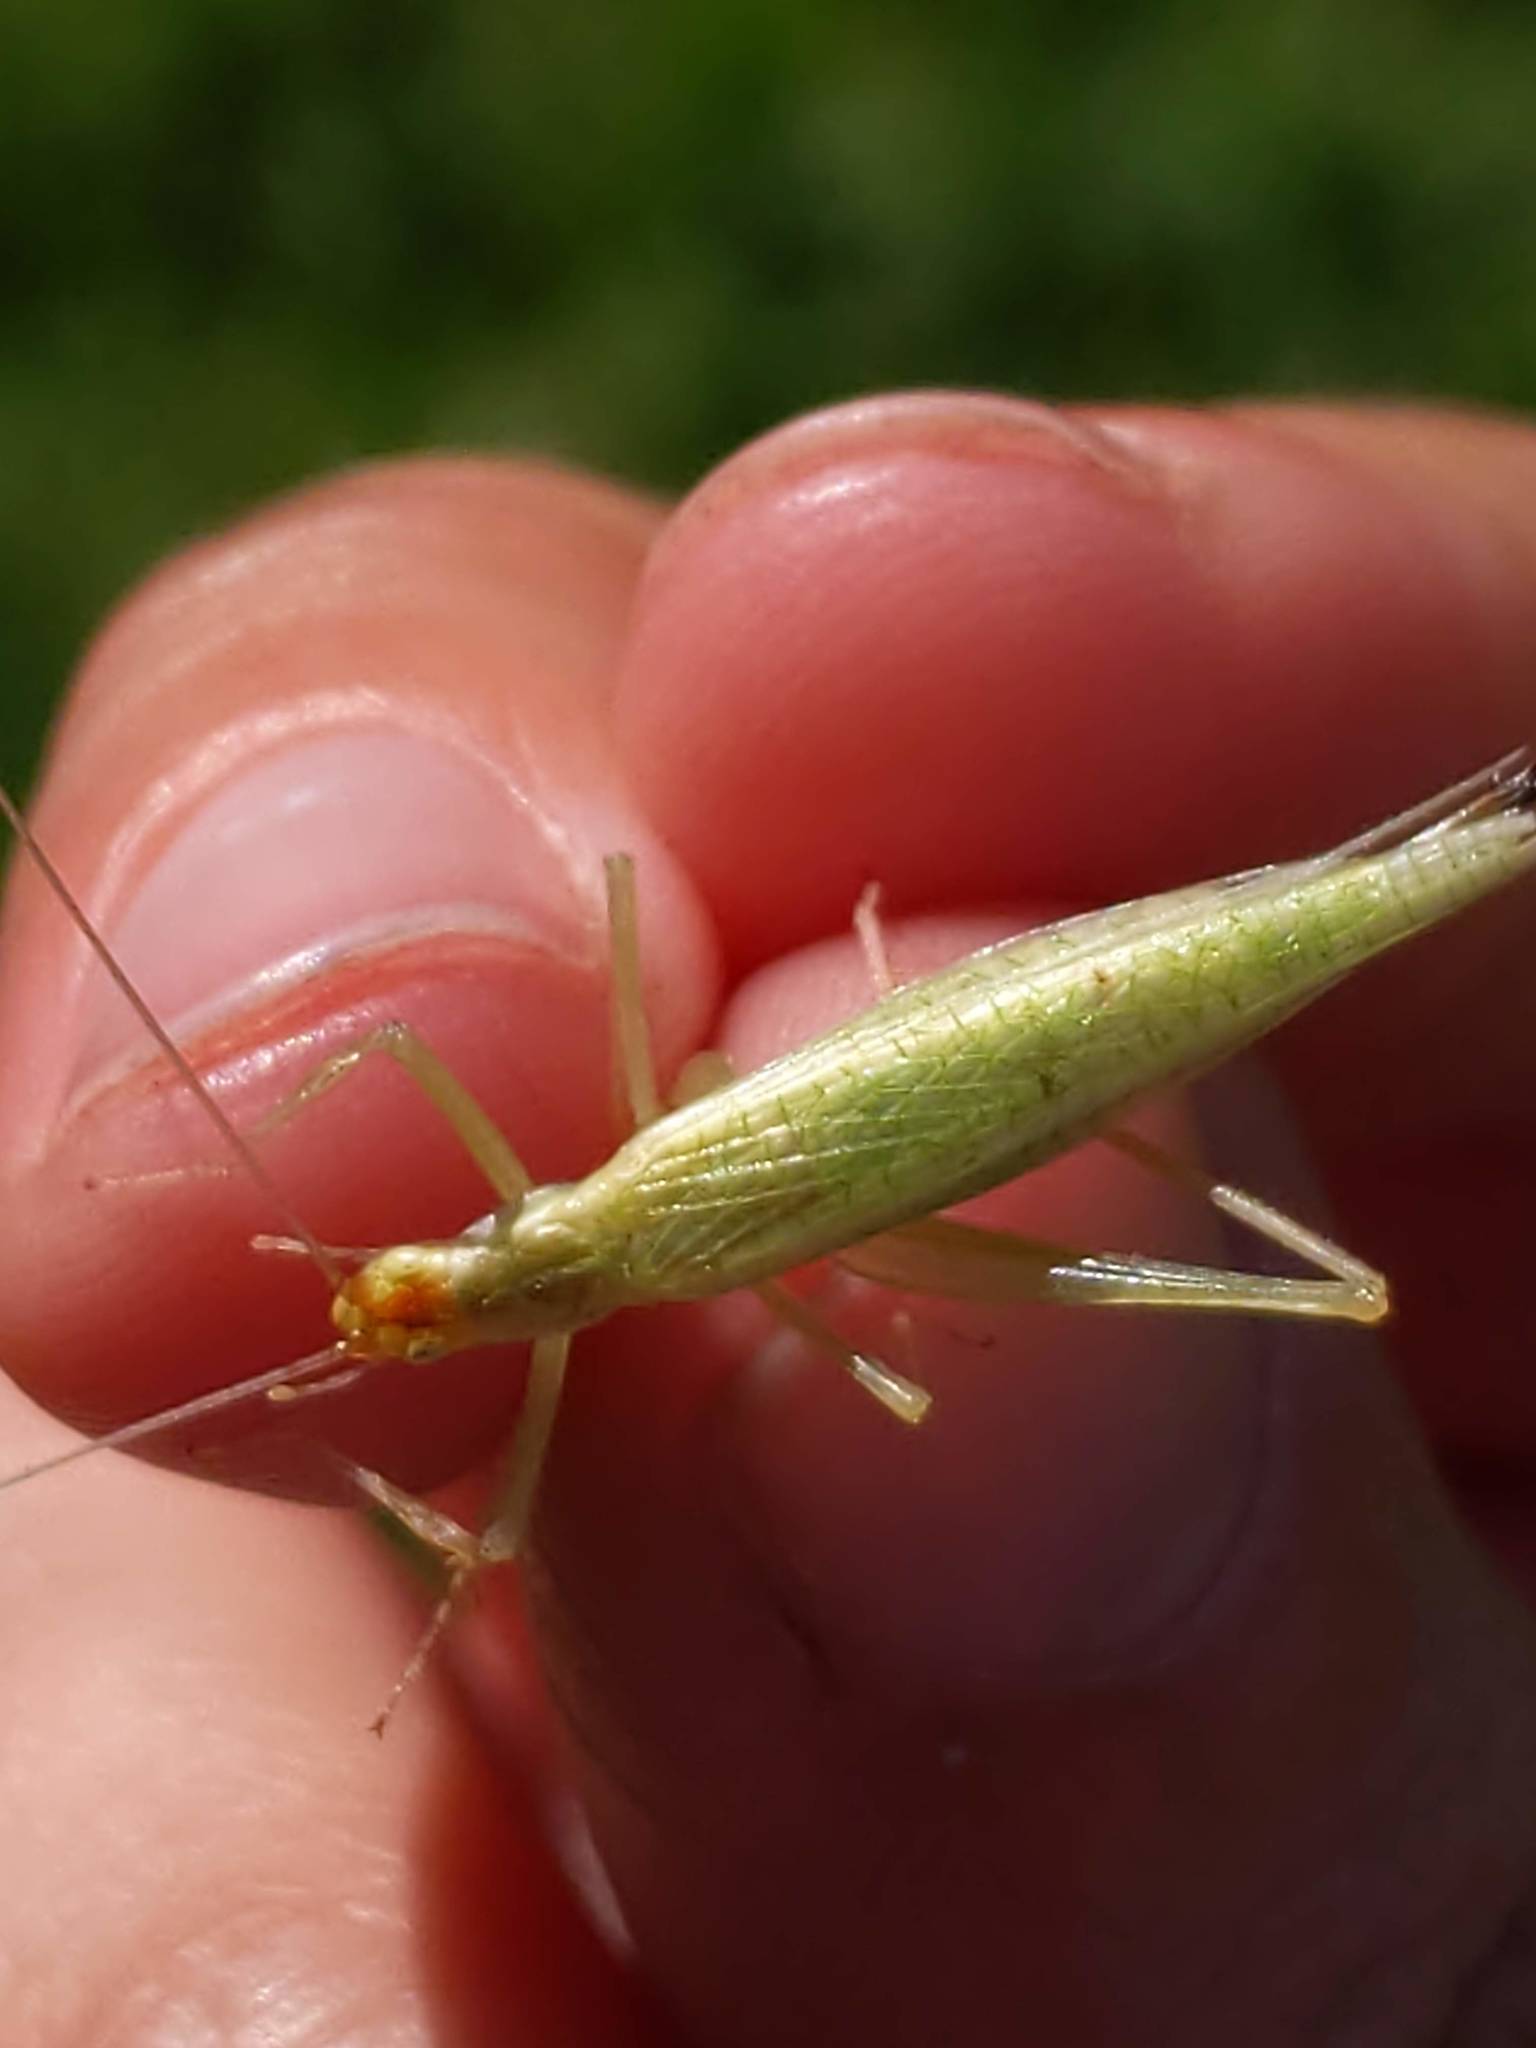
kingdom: Animalia
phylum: Arthropoda
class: Insecta
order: Orthoptera
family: Gryllidae
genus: Oecanthus
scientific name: Oecanthus
